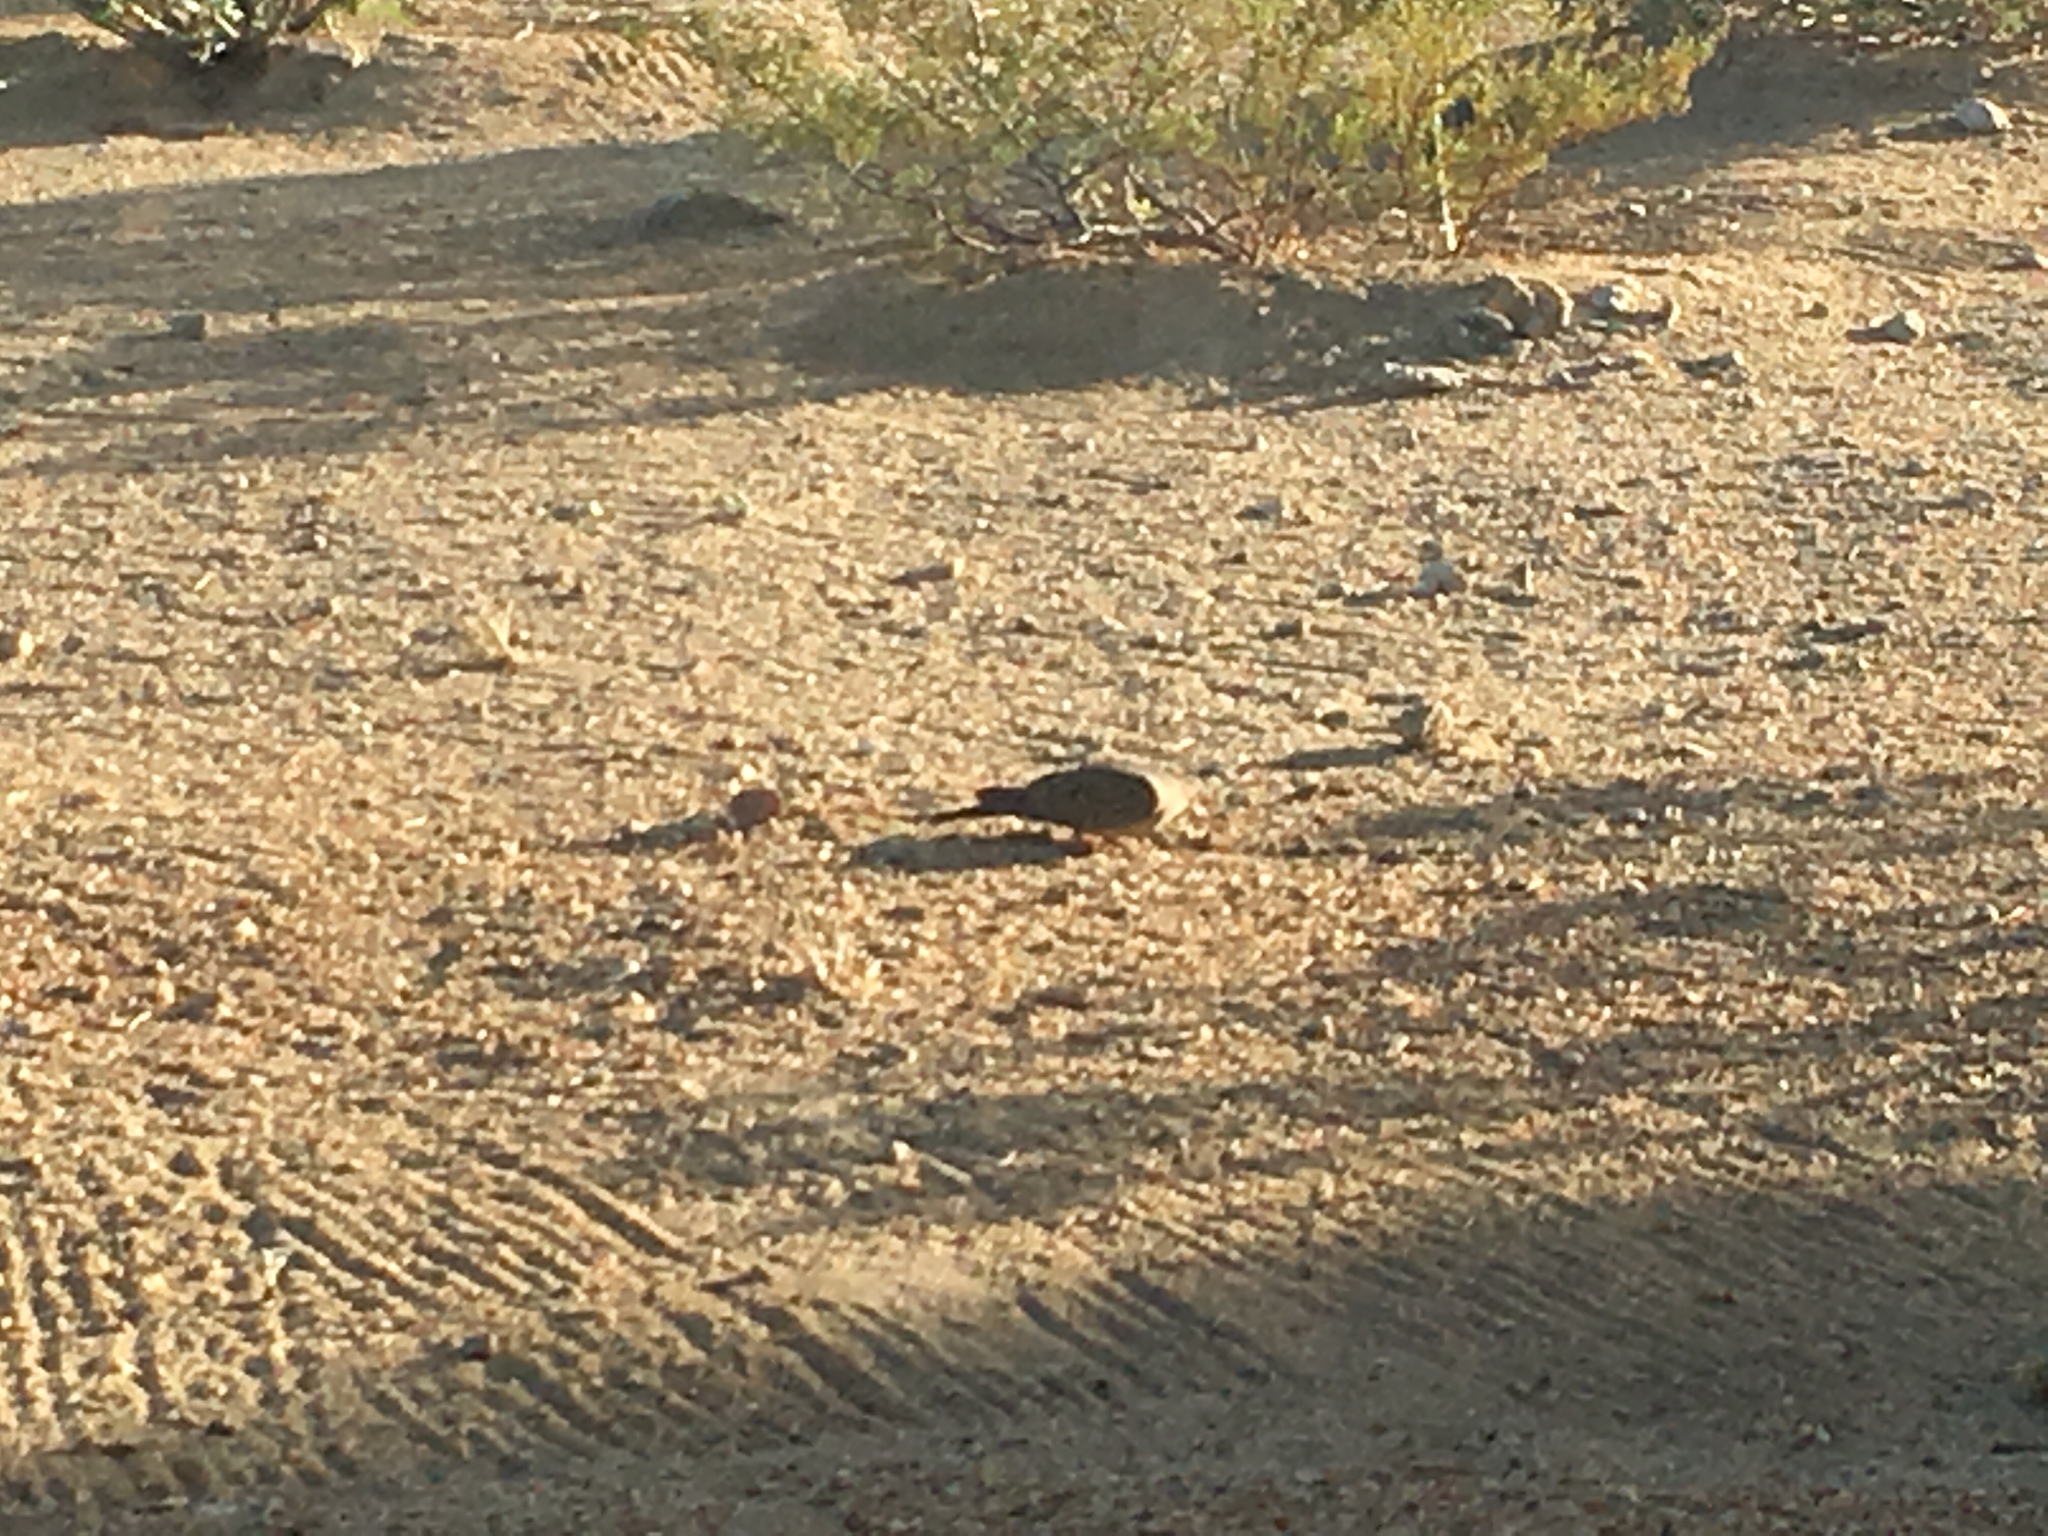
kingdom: Animalia
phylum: Chordata
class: Aves
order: Columbiformes
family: Columbidae
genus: Zenaida
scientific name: Zenaida macroura
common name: Mourning dove
